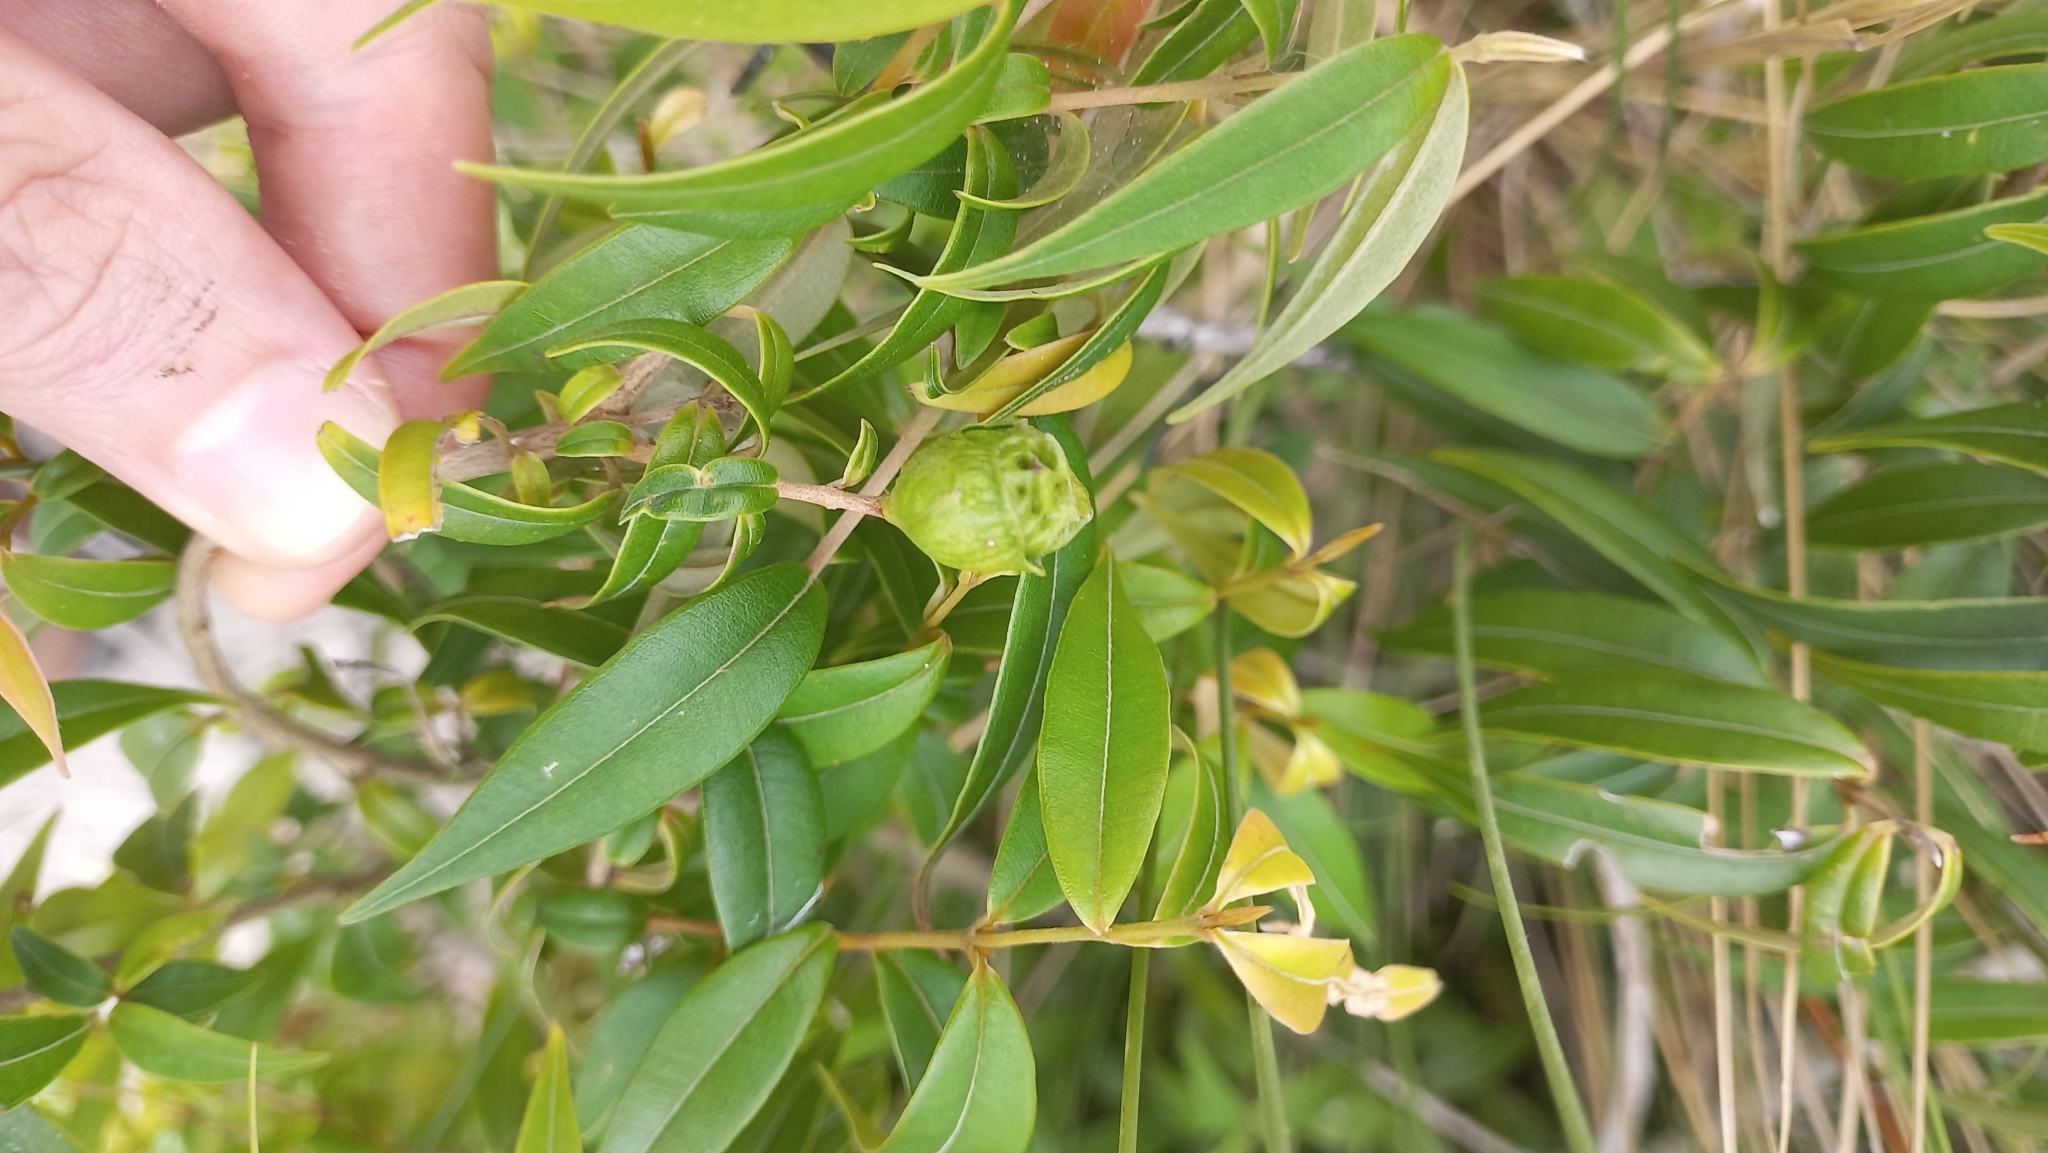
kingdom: Plantae
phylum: Tracheophyta
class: Magnoliopsida
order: Myrtales
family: Myrtaceae
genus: Myrcia
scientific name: Myrcia splendens
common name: Surinam cherry
